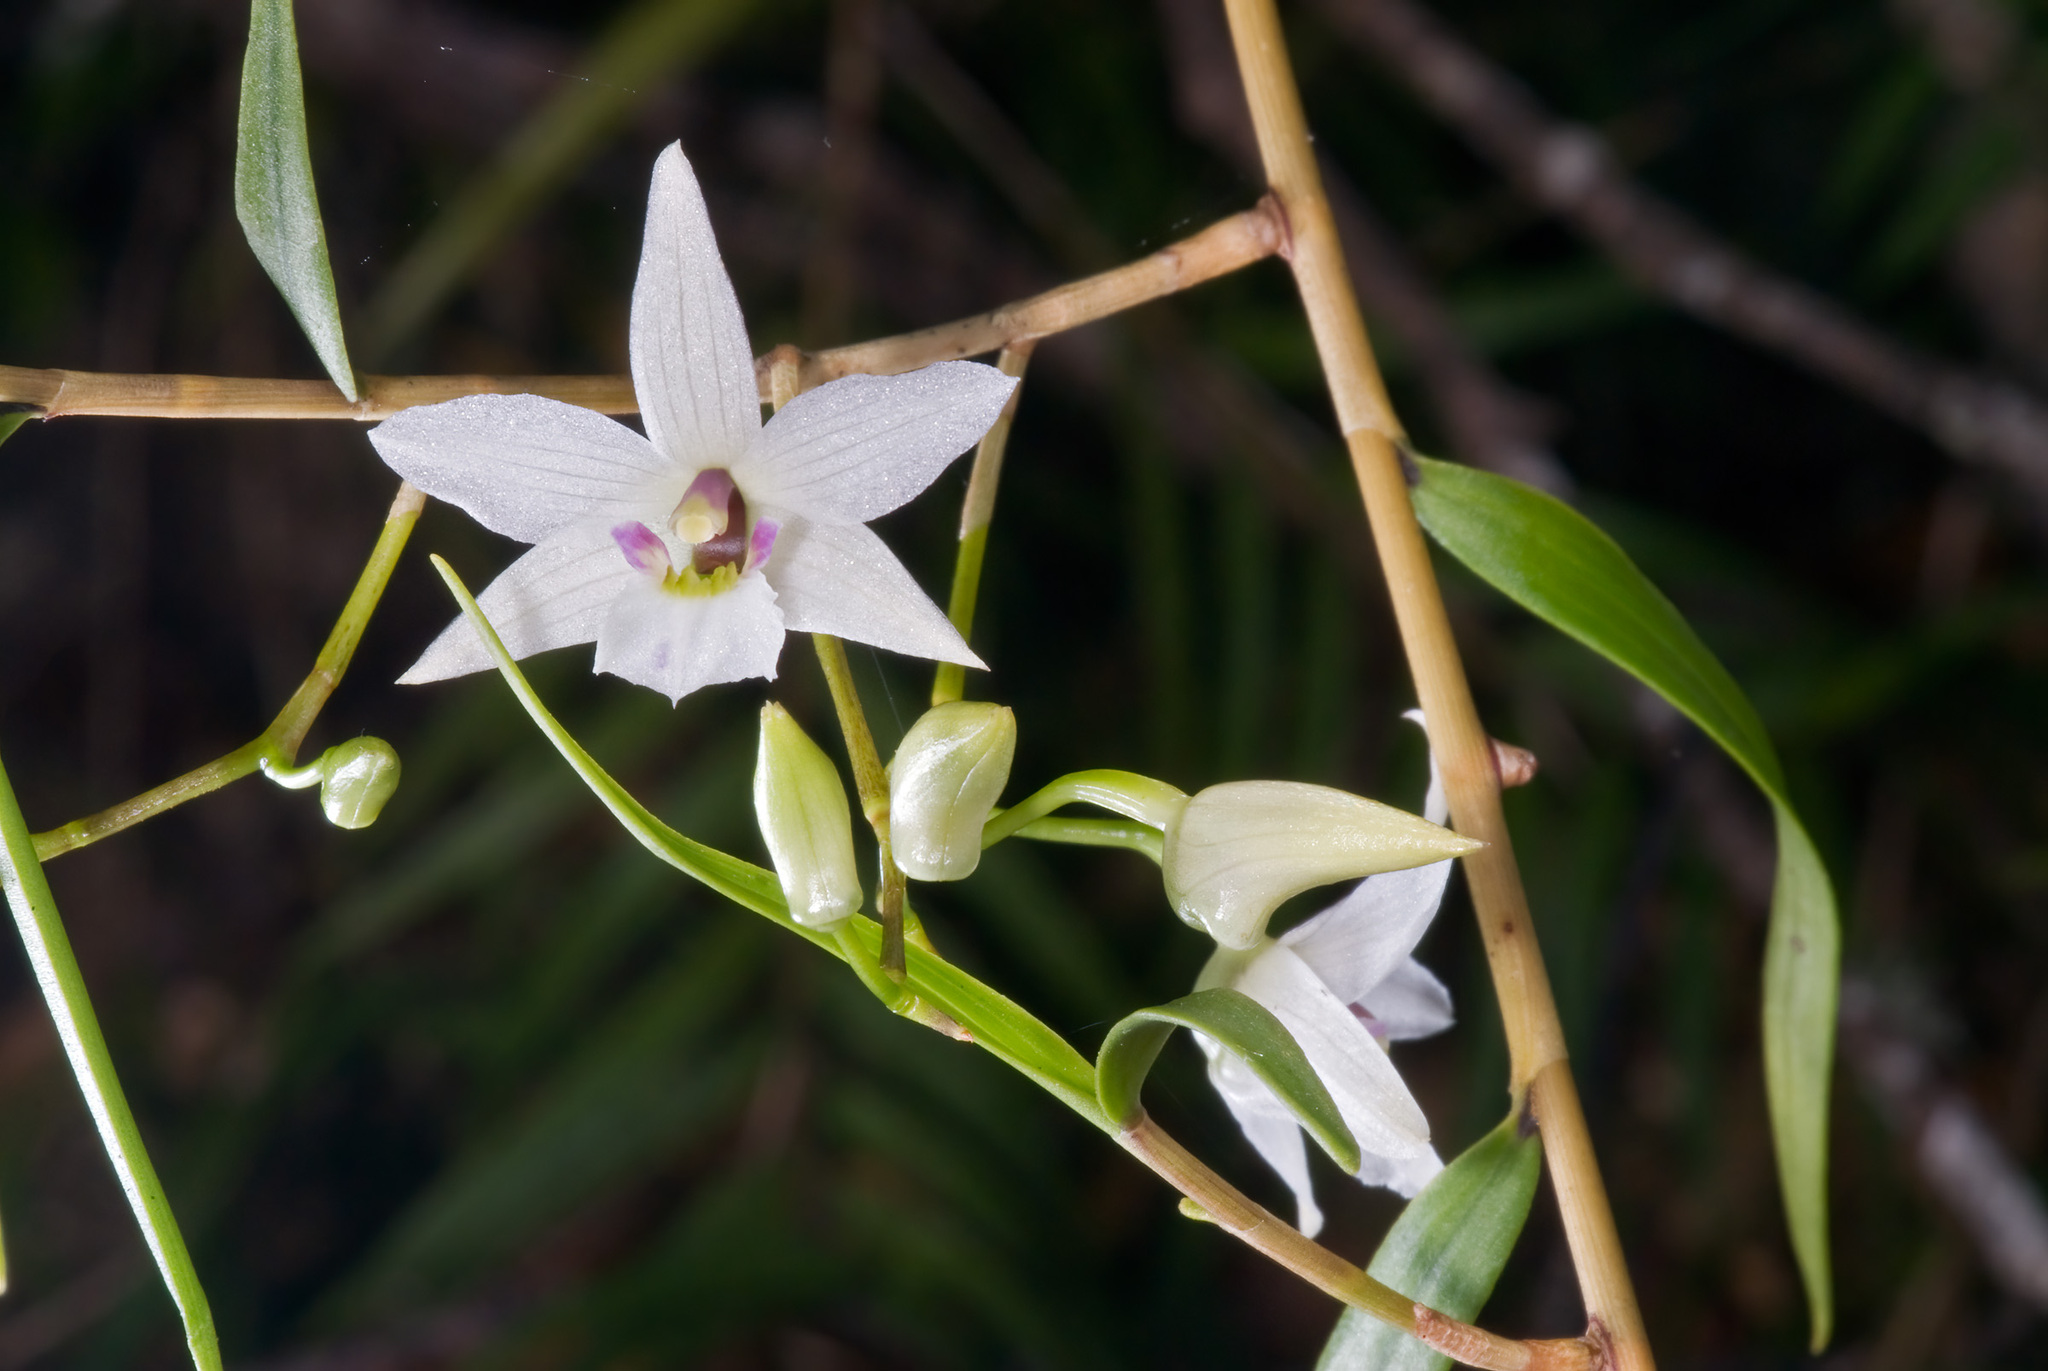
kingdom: Plantae
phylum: Tracheophyta
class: Liliopsida
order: Asparagales
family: Orchidaceae
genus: Dendrobium
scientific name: Dendrobium cunninghamii
